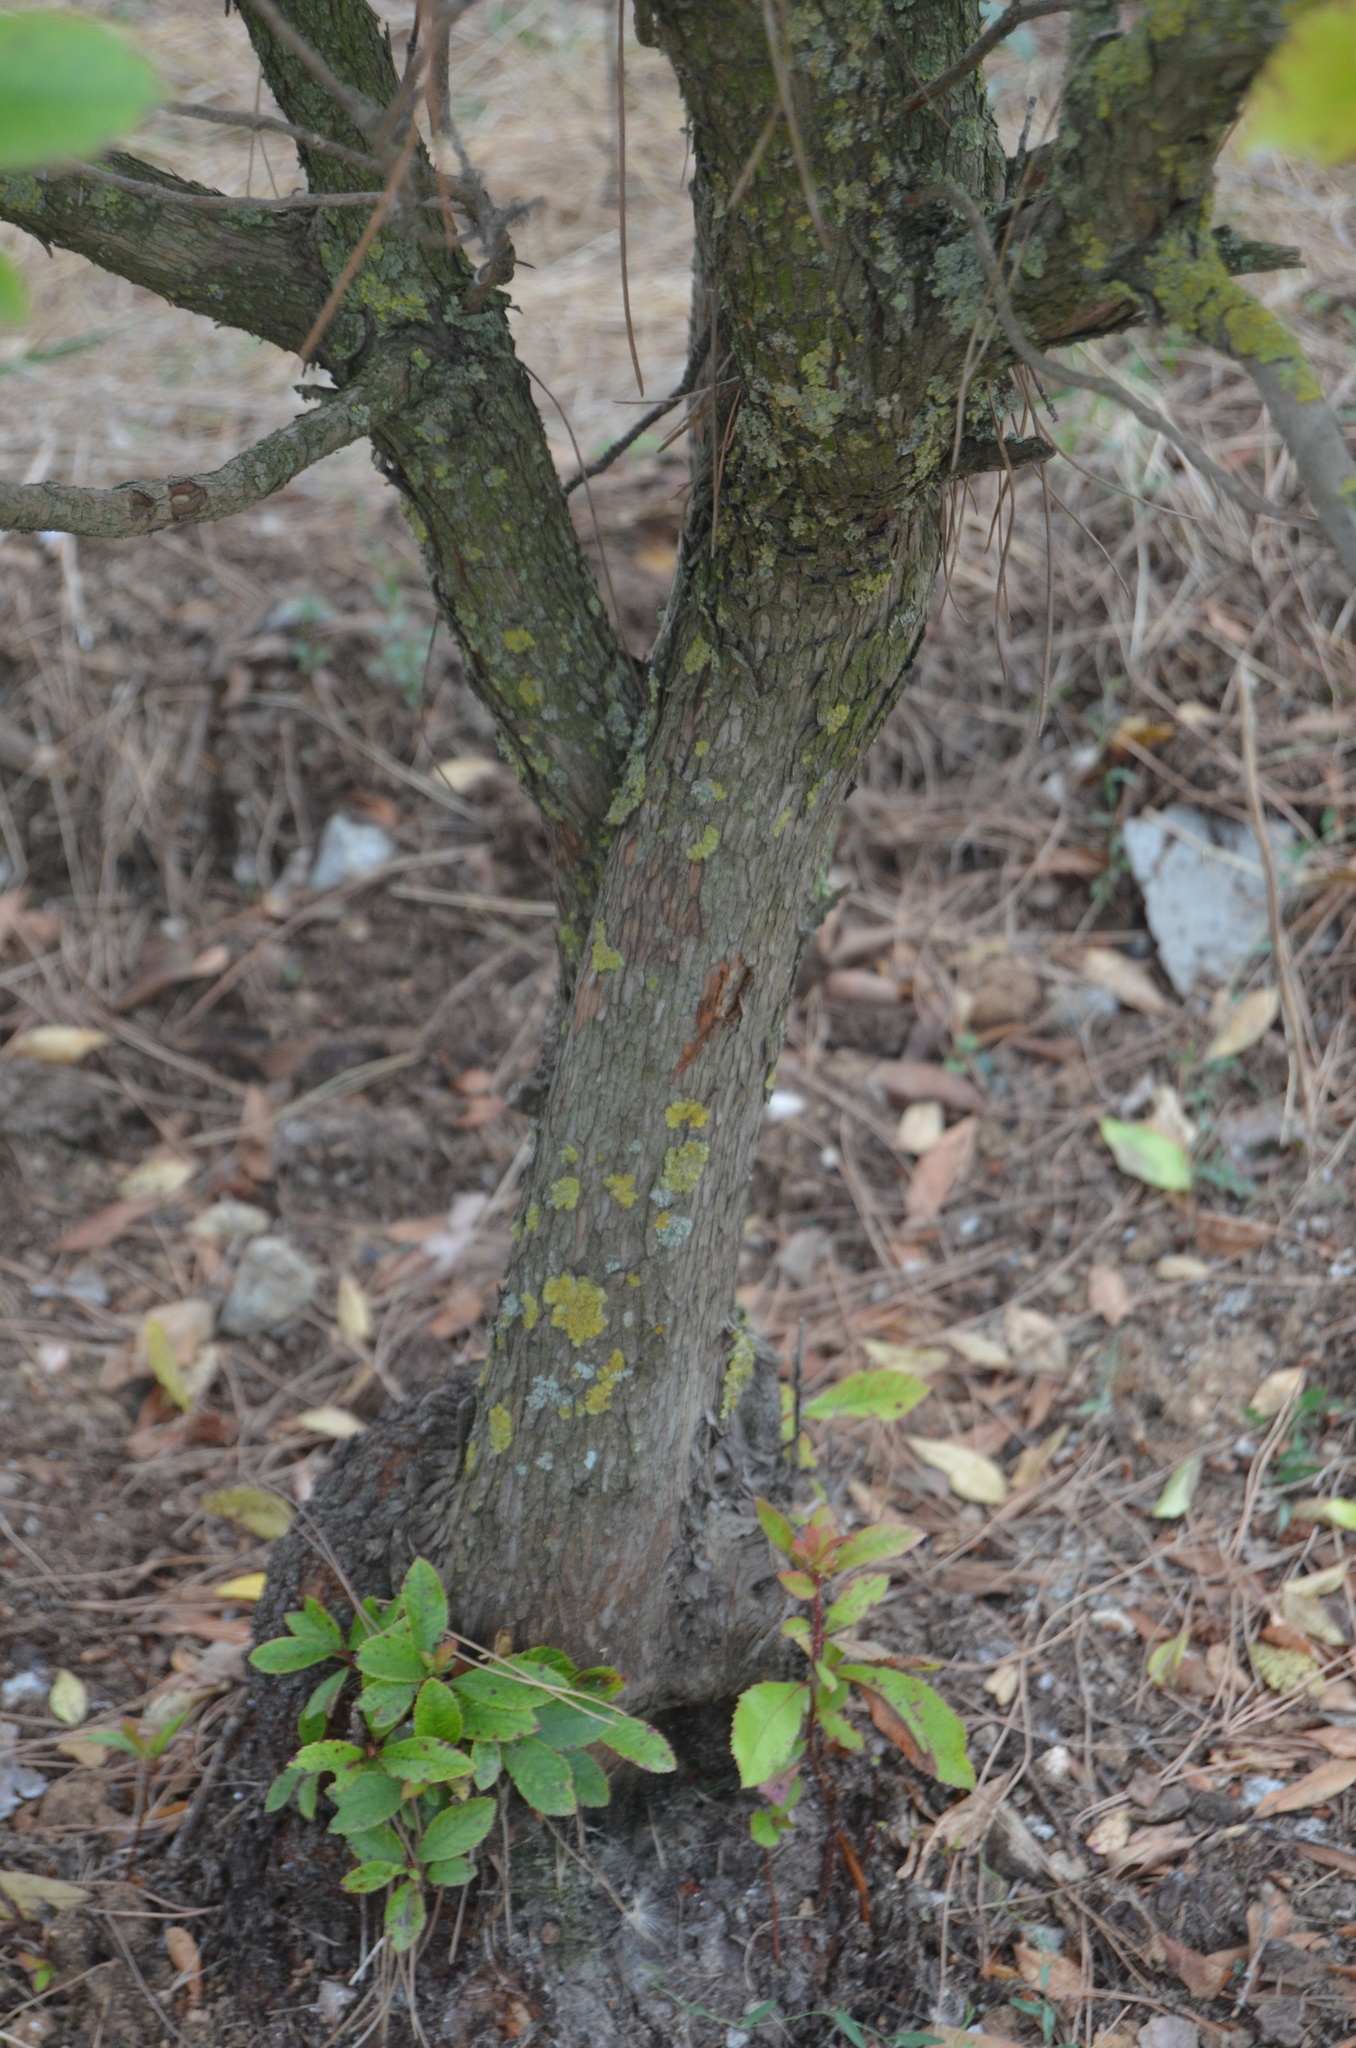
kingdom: Plantae
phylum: Tracheophyta
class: Magnoliopsida
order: Ericales
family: Ericaceae
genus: Arbutus
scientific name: Arbutus unedo
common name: Strawberry-tree
